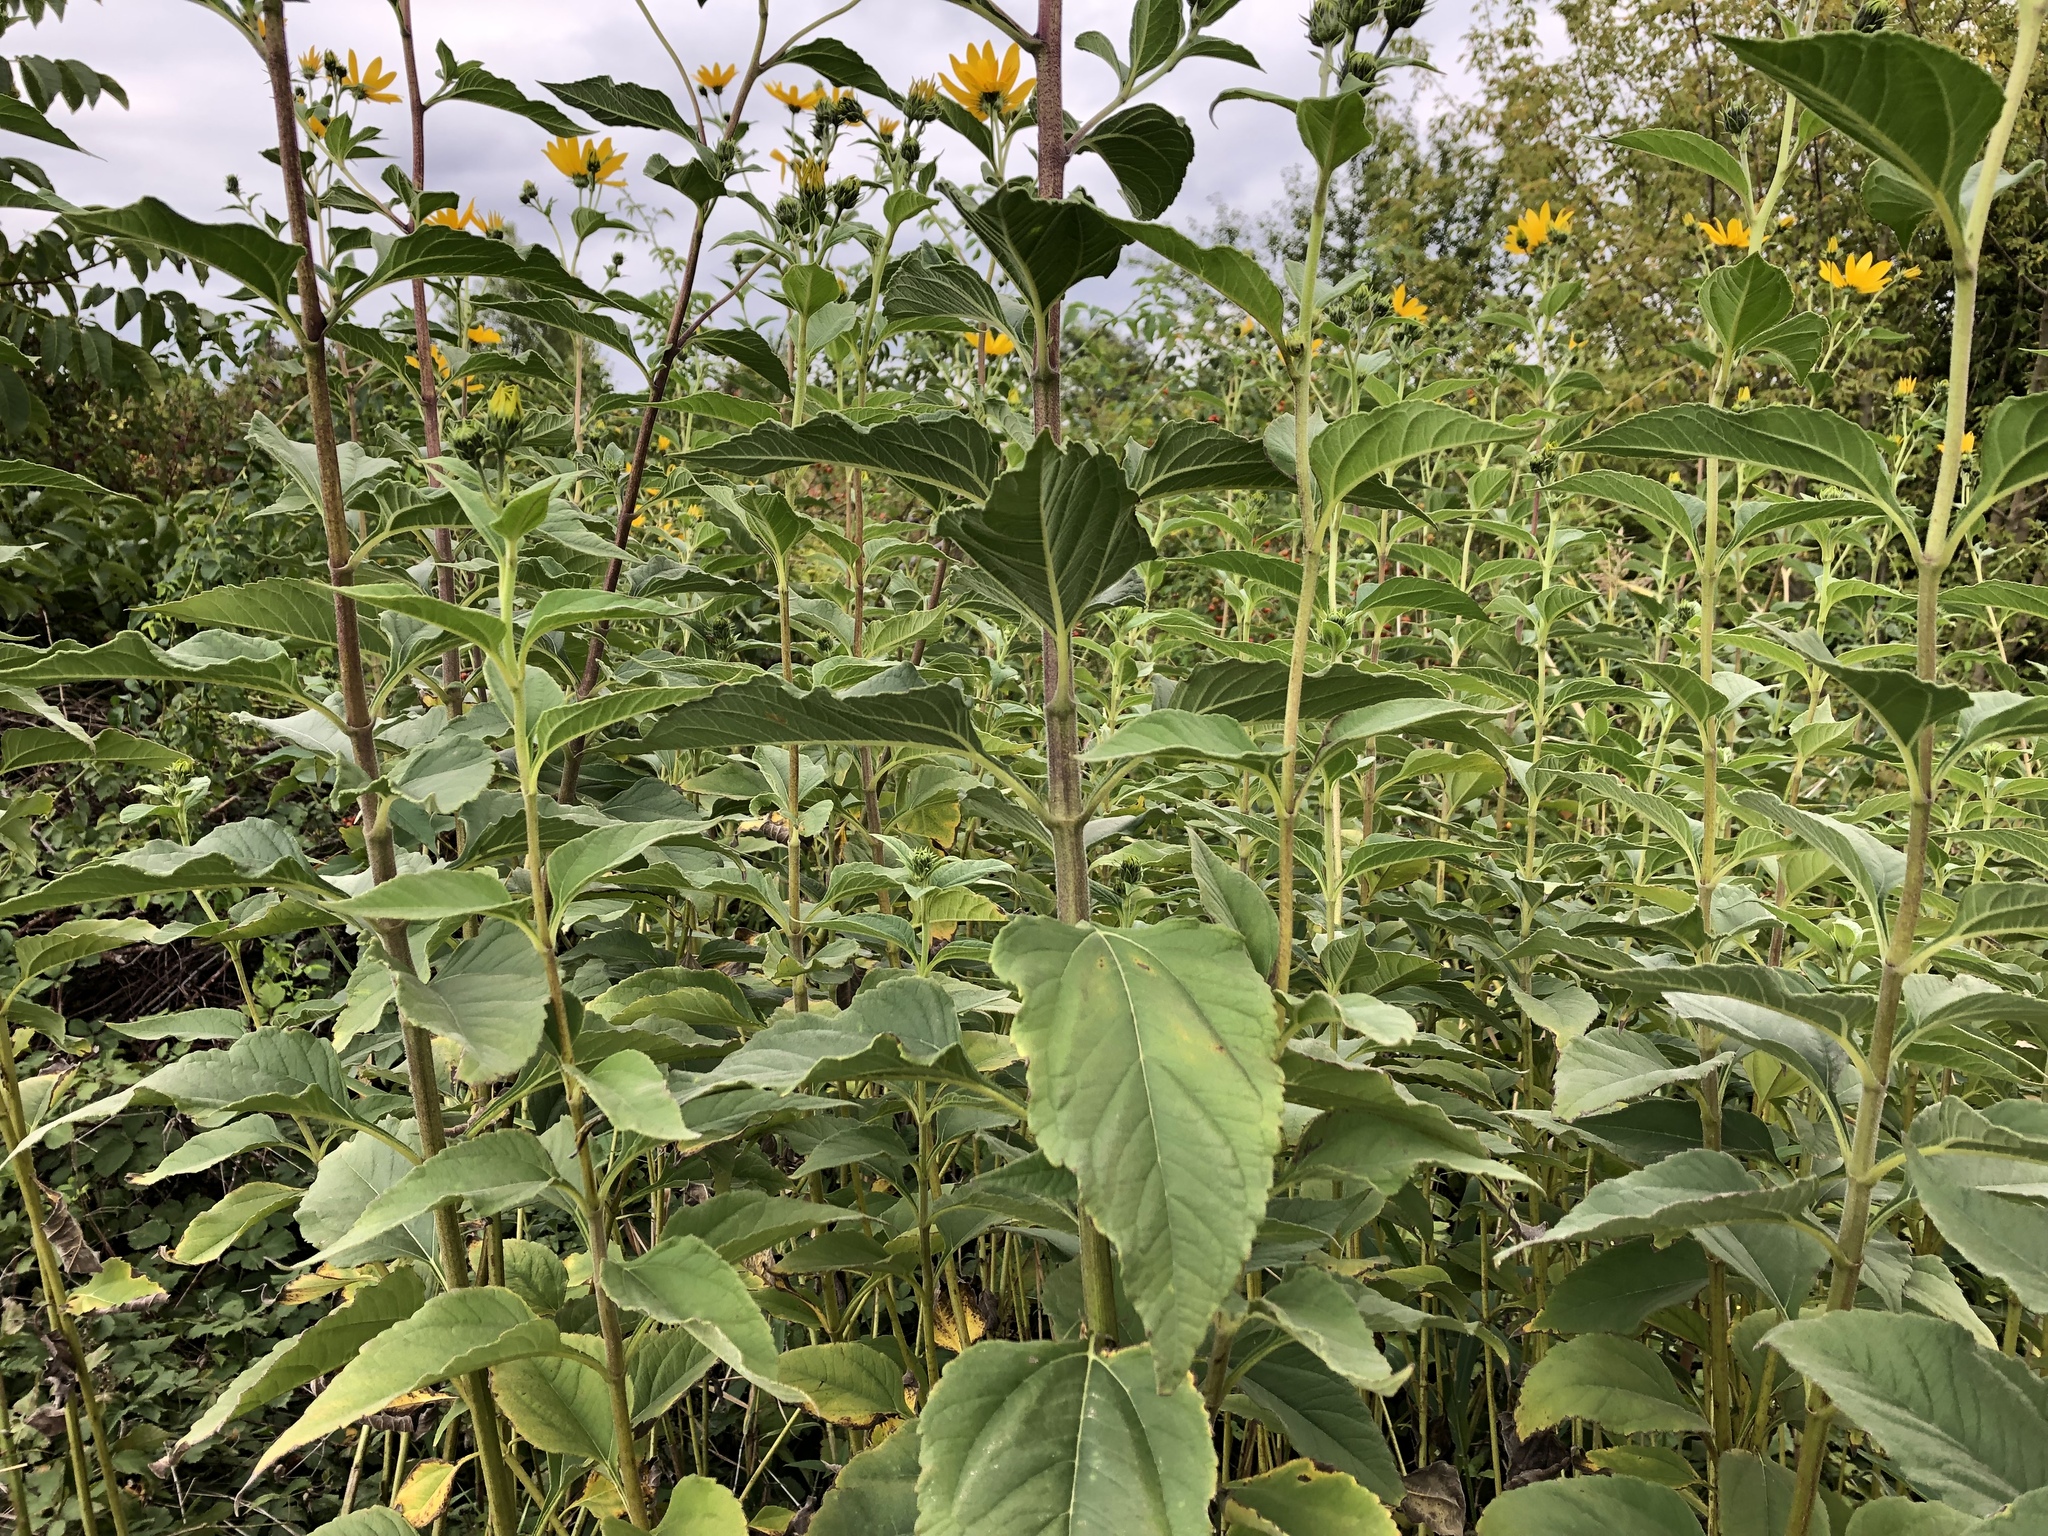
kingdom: Plantae
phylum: Tracheophyta
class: Magnoliopsida
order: Asterales
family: Asteraceae
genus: Helianthus
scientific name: Helianthus tuberosus
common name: Jerusalem artichoke
